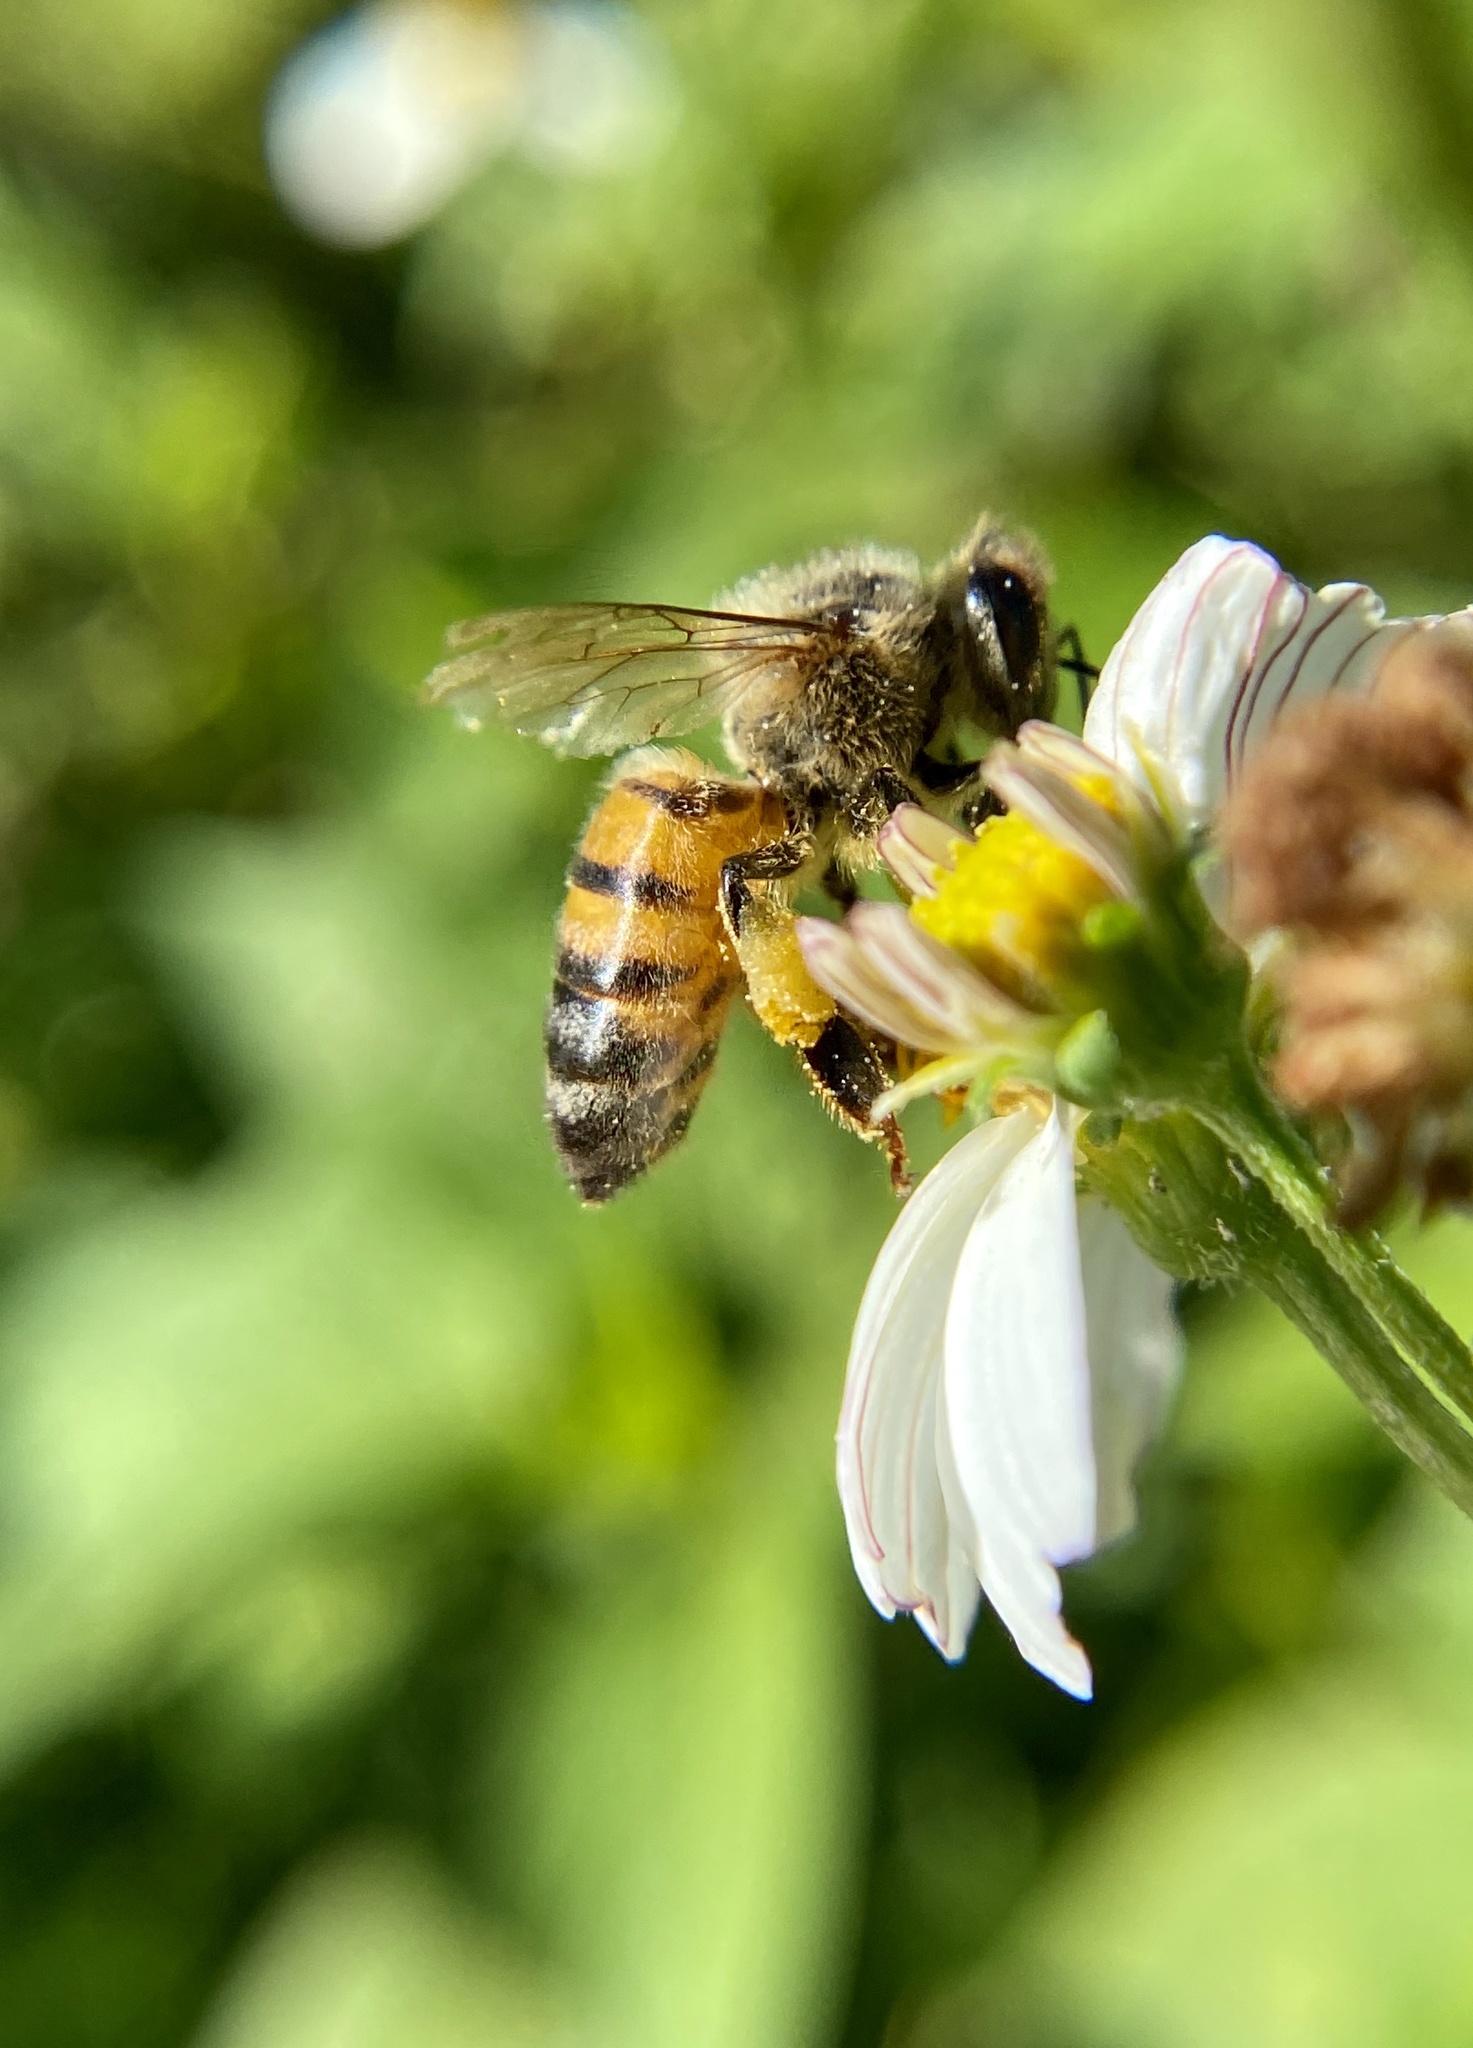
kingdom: Animalia
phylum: Arthropoda
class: Insecta
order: Hymenoptera
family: Apidae
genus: Apis
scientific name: Apis mellifera
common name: Honey bee
